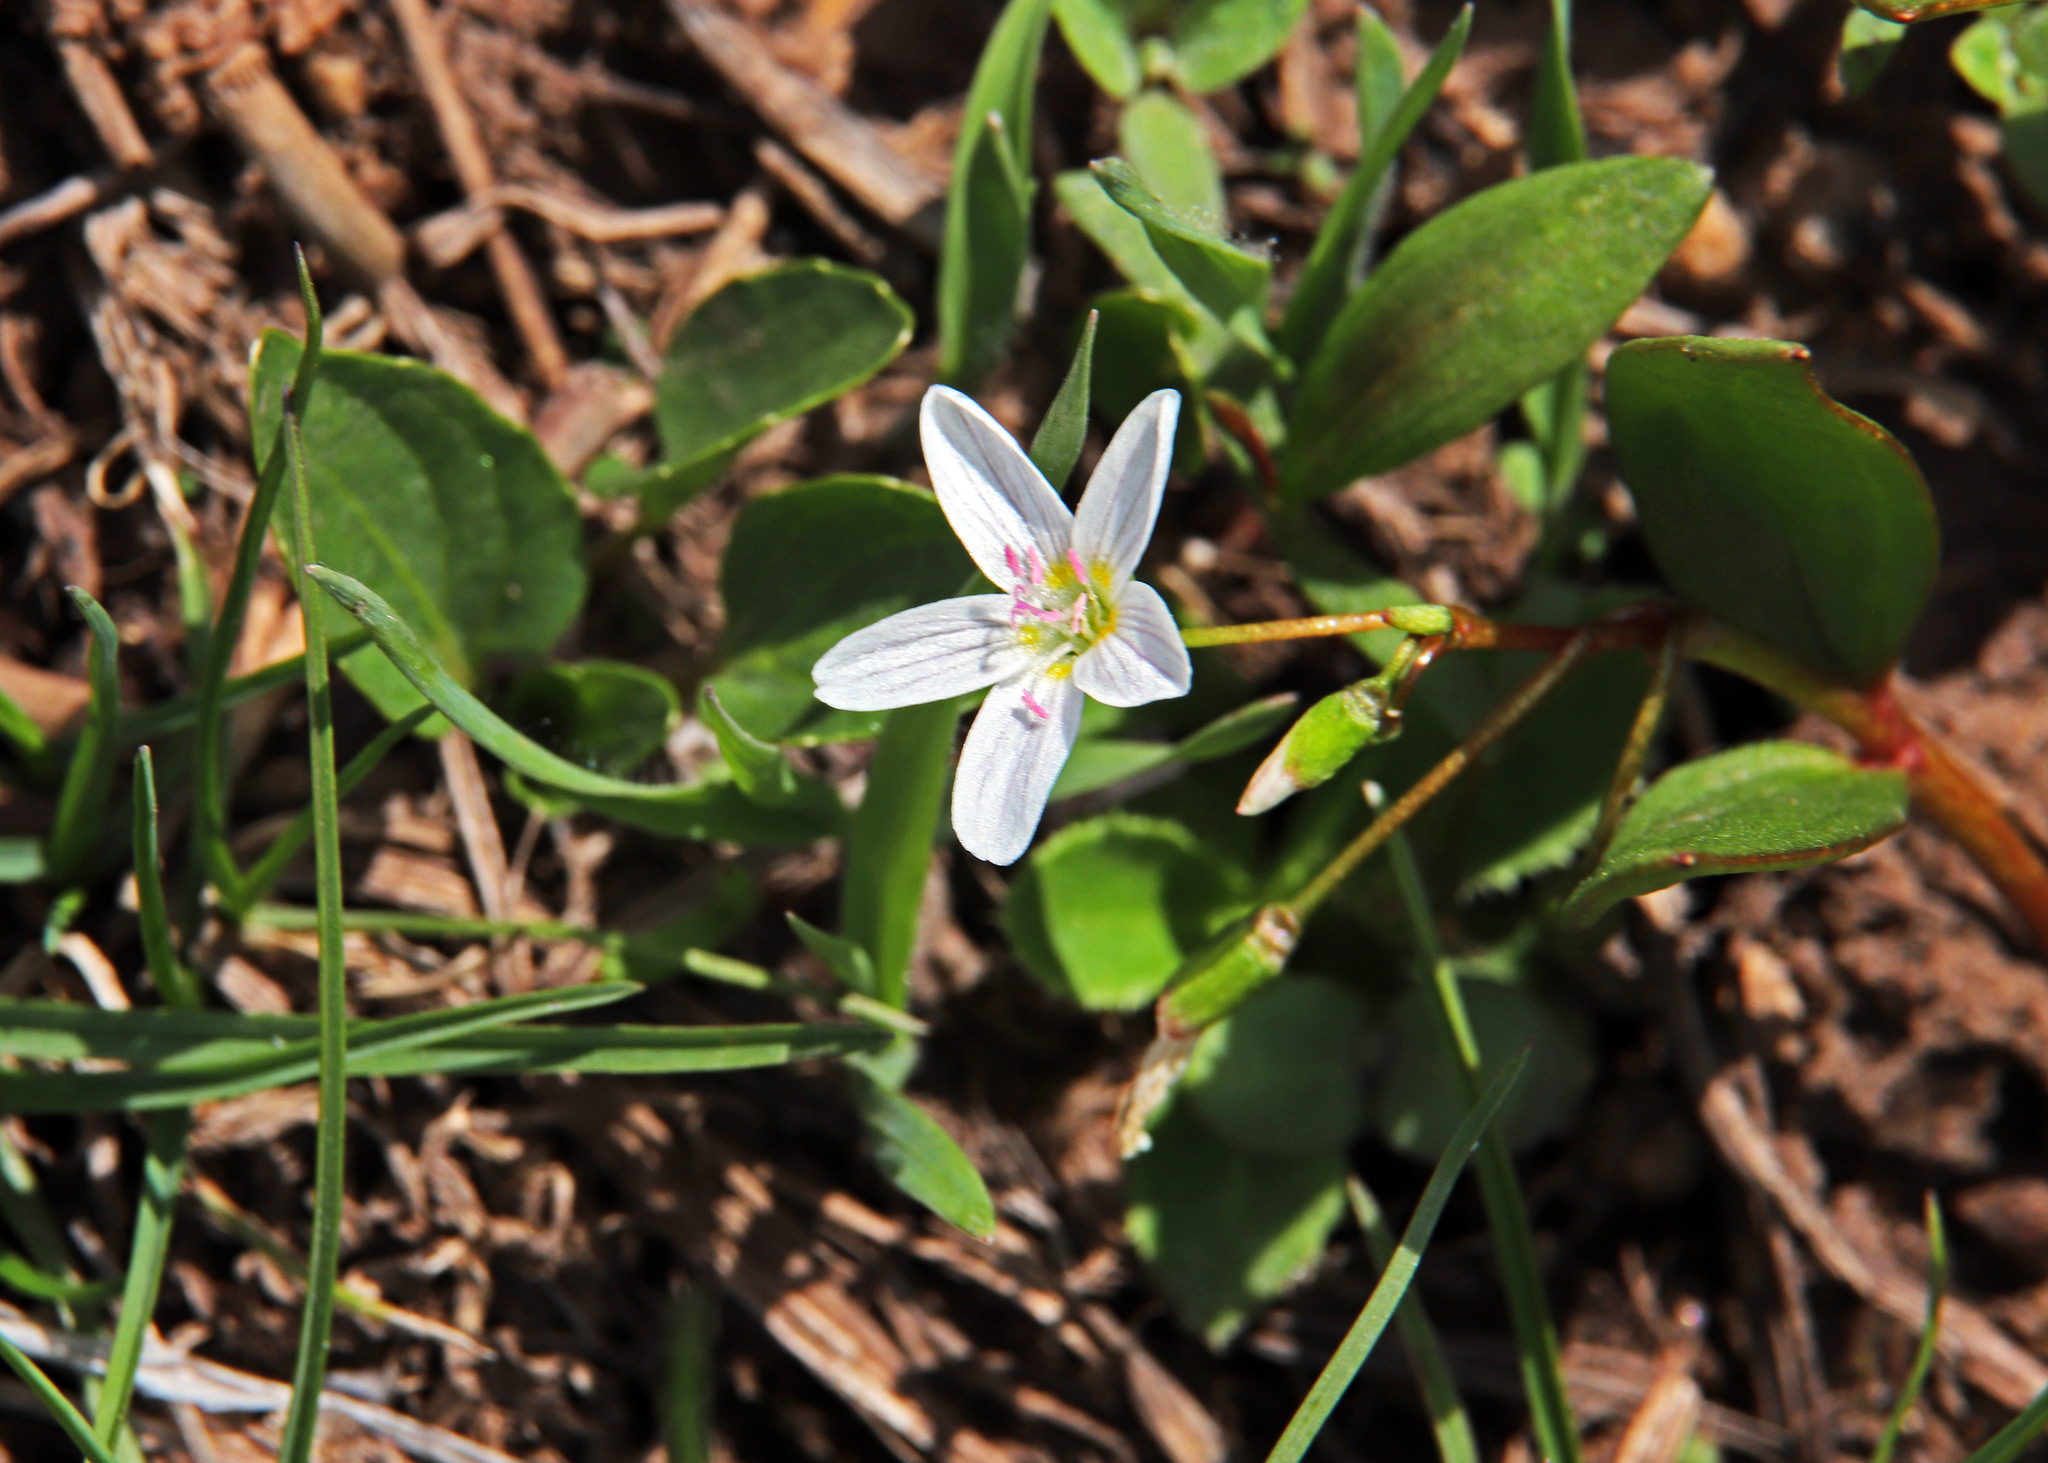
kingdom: Plantae
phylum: Tracheophyta
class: Magnoliopsida
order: Caryophyllales
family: Montiaceae
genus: Claytonia
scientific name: Claytonia lanceolata
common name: Western spring-beauty
